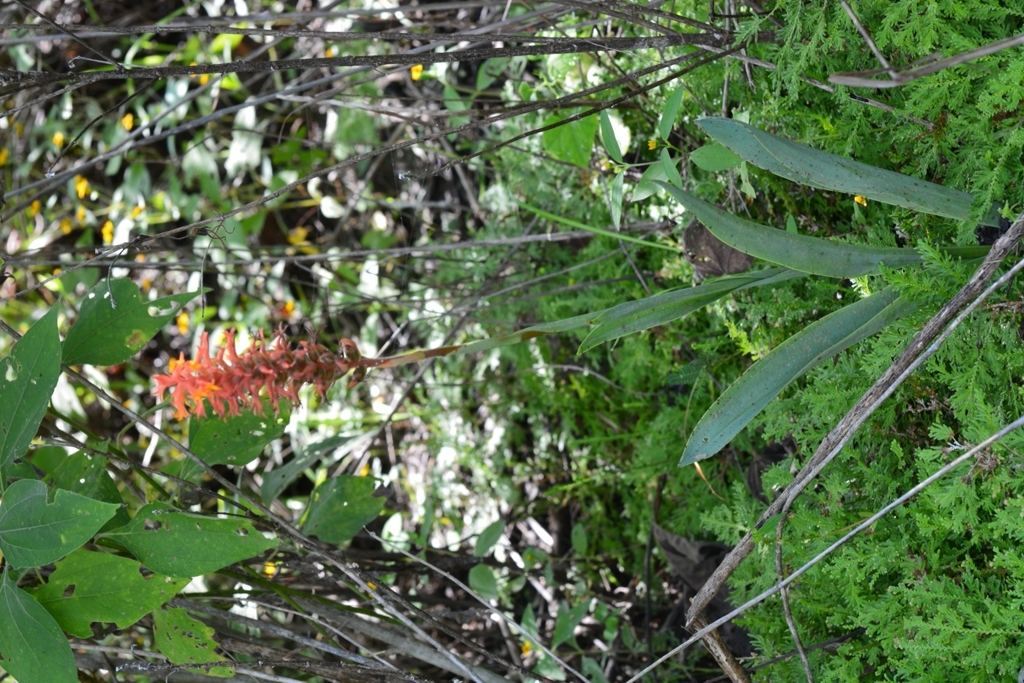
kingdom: Plantae
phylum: Tracheophyta
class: Liliopsida
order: Asparagales
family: Orchidaceae
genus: Dichromanthus
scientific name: Dichromanthus cinnabarinus
